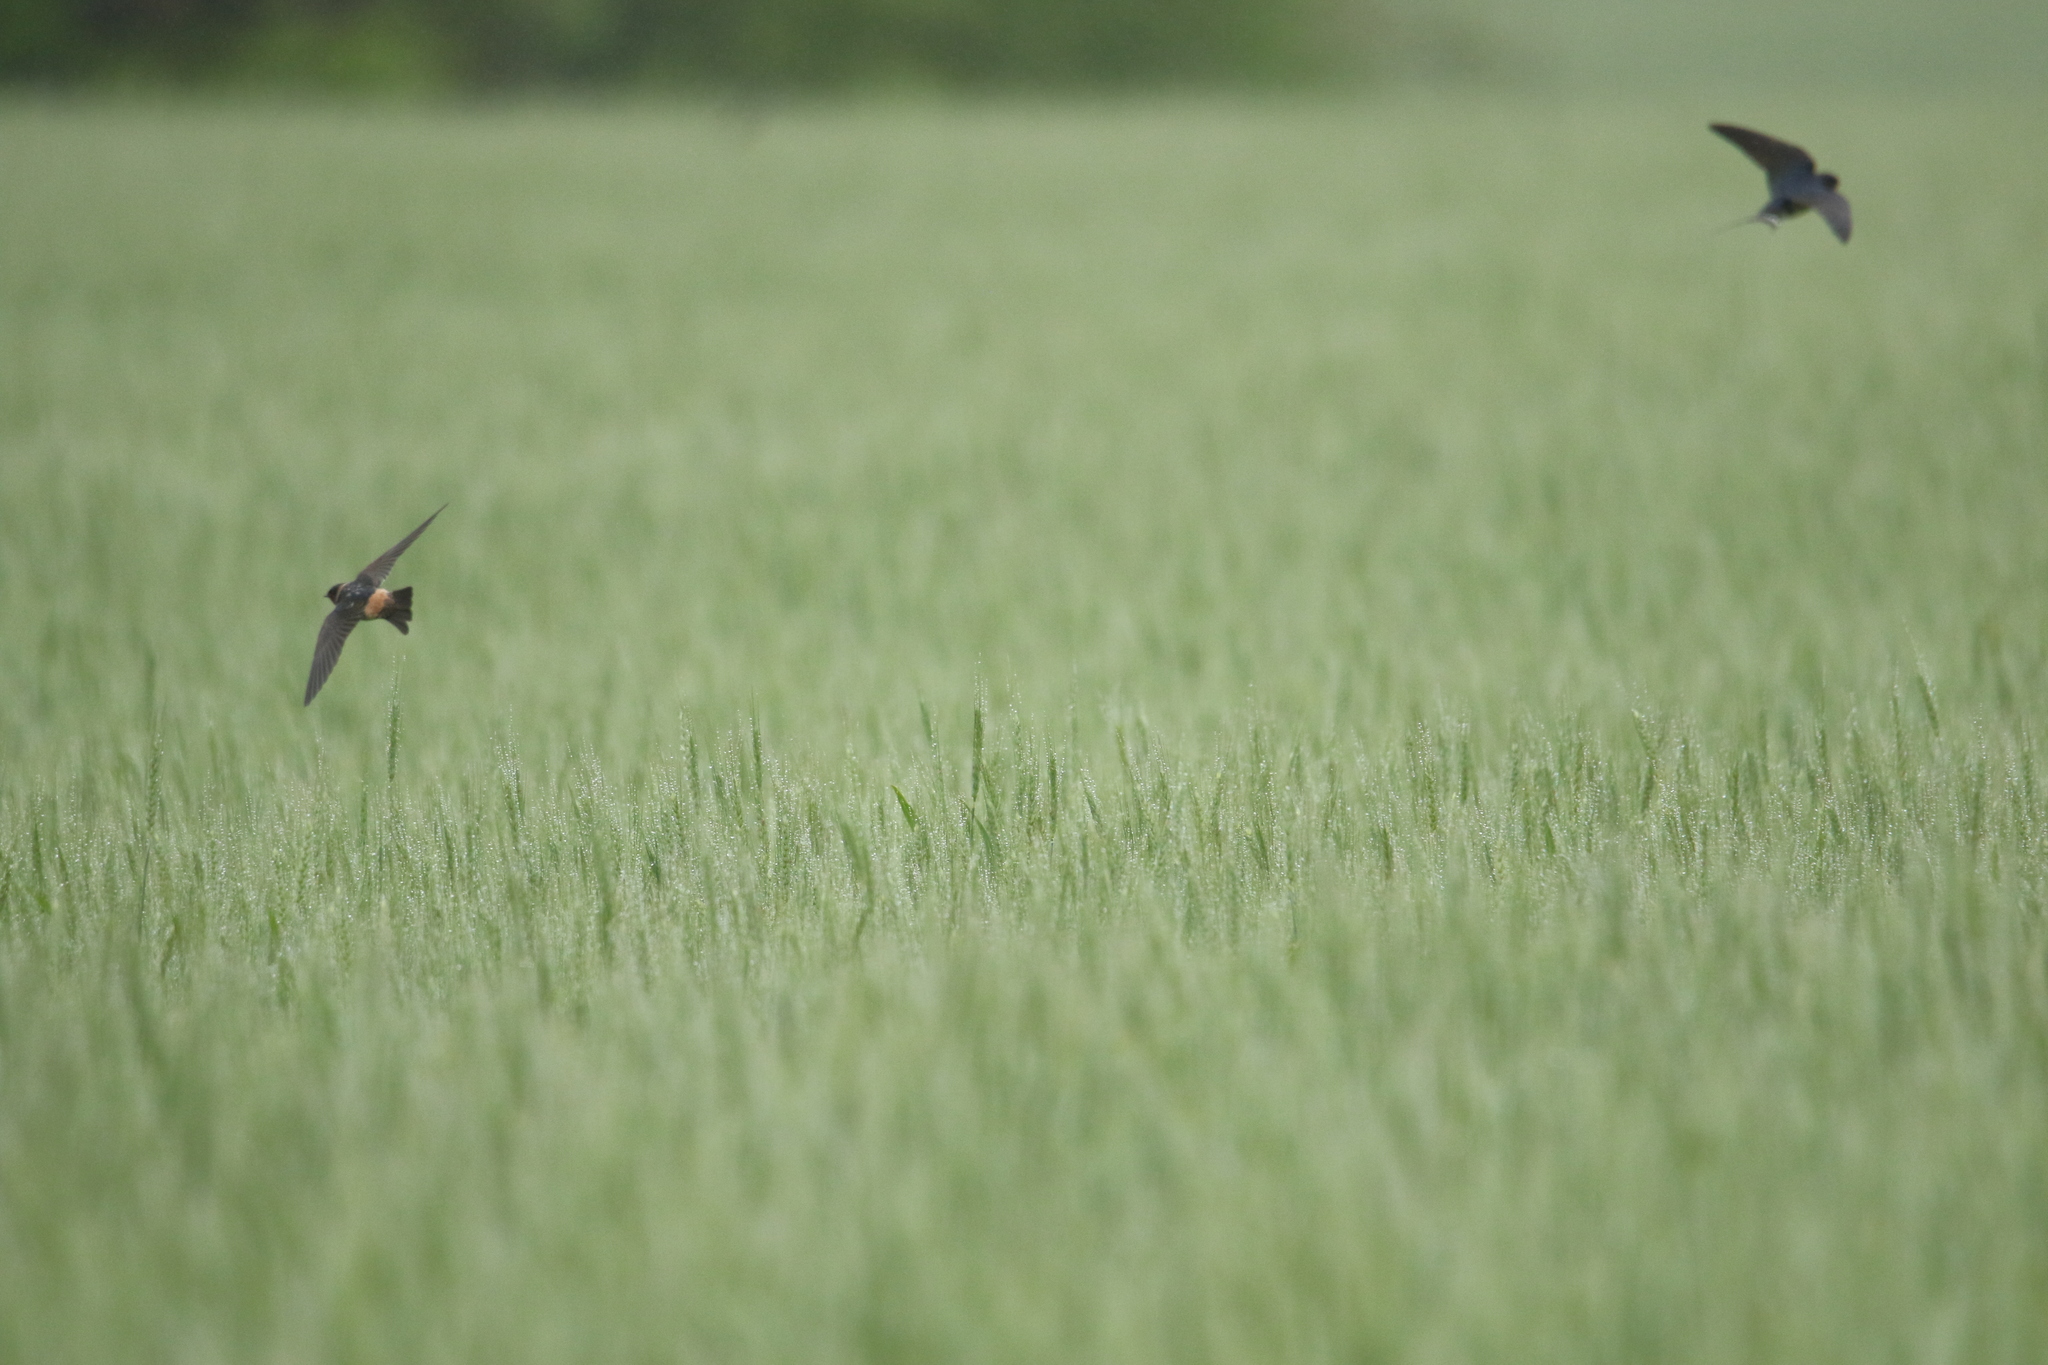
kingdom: Animalia
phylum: Chordata
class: Aves
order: Passeriformes
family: Hirundinidae
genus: Petrochelidon
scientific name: Petrochelidon pyrrhonota
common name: American cliff swallow
